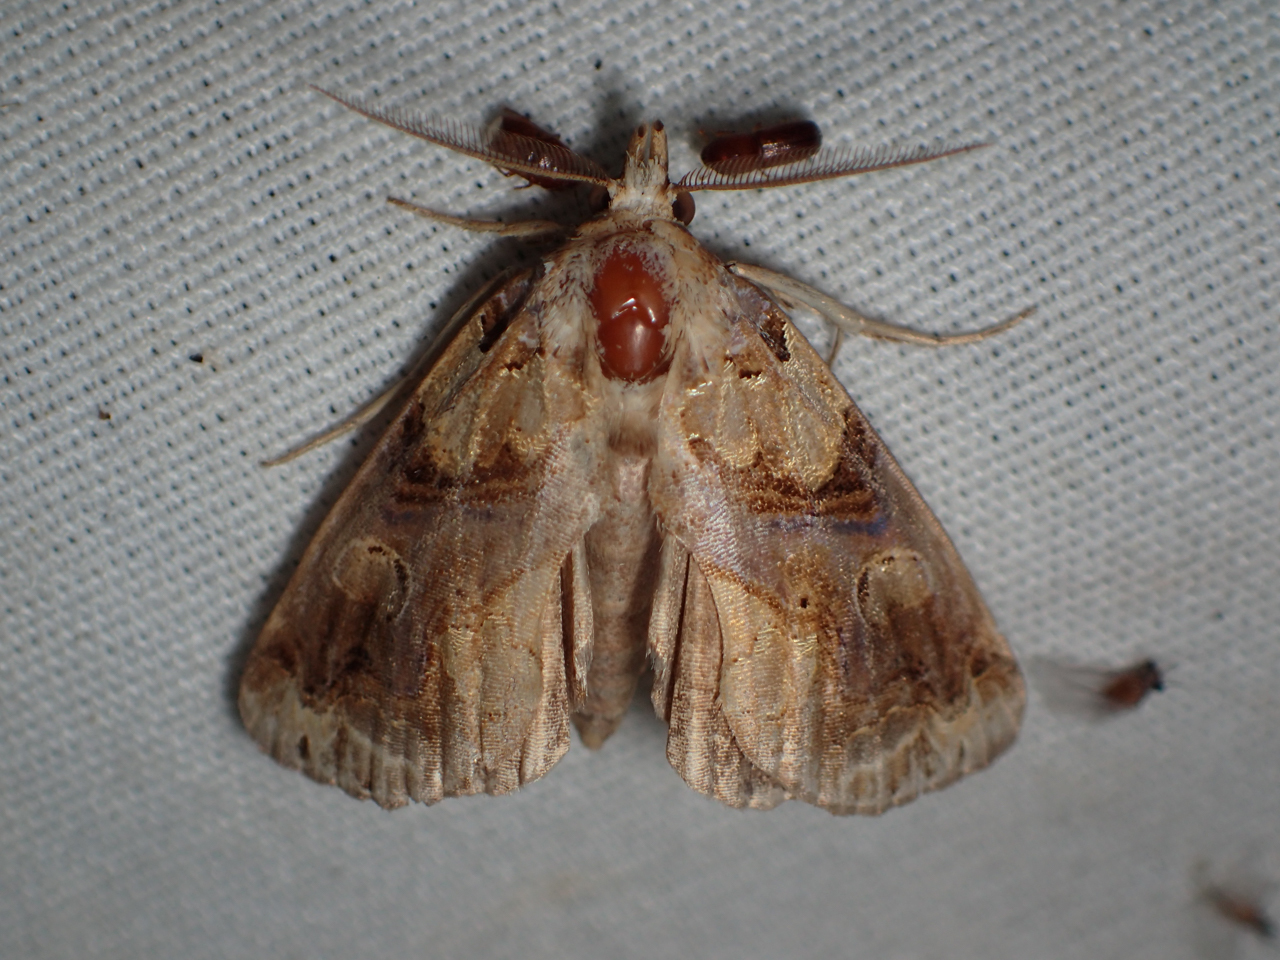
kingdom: Animalia
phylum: Arthropoda
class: Insecta
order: Lepidoptera
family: Erebidae
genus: Plusiodonta
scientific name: Plusiodonta compressipalpis
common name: Moonseed moth
